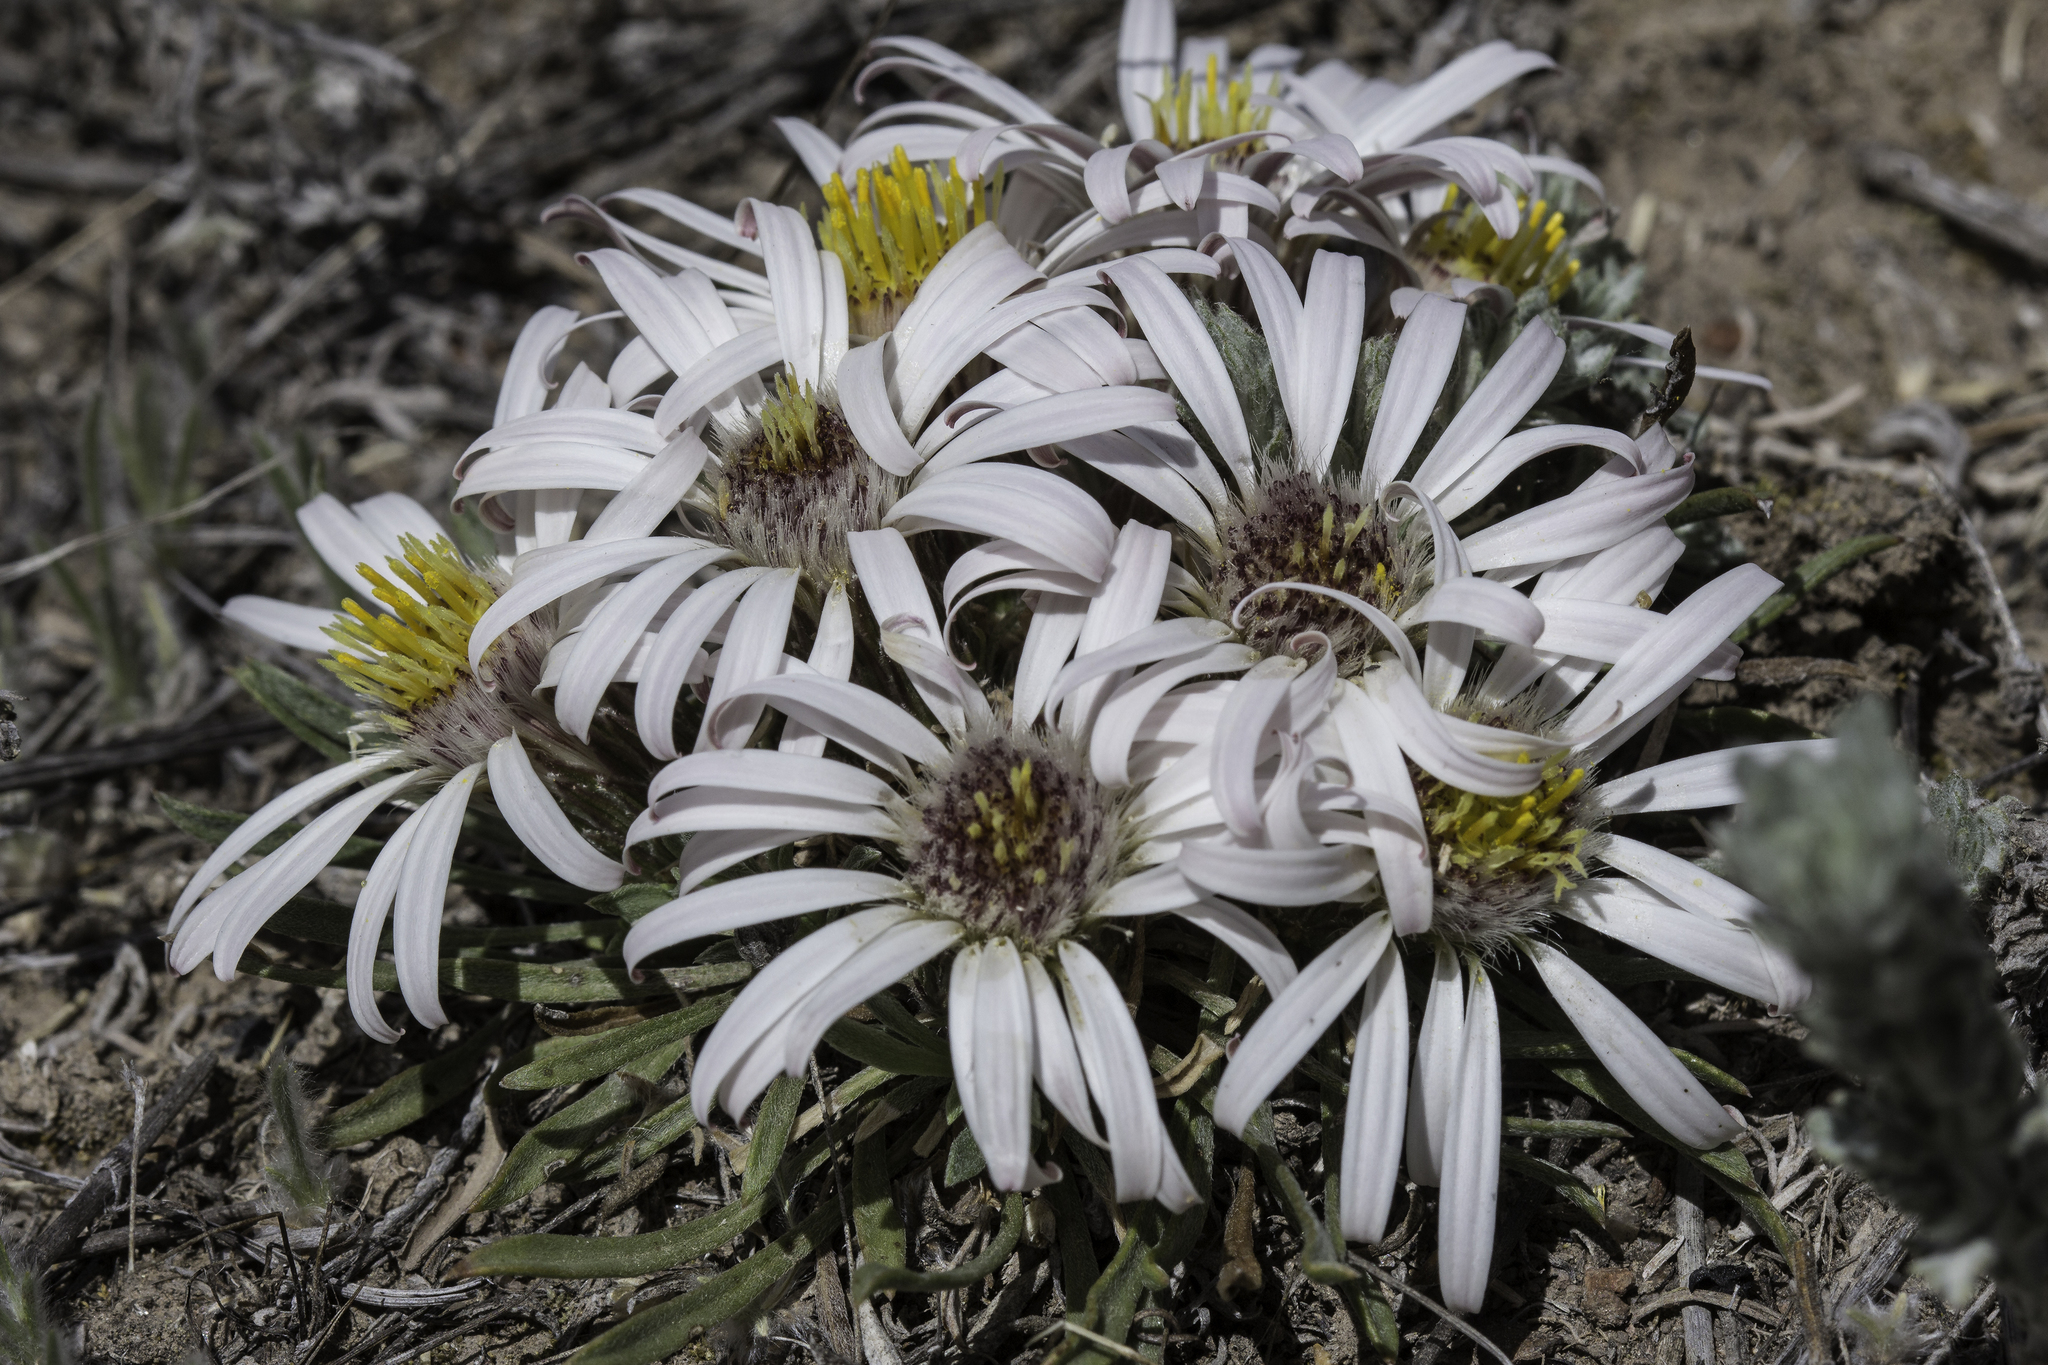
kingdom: Plantae
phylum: Tracheophyta
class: Magnoliopsida
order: Asterales
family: Asteraceae
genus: Townsendia
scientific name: Townsendia exscapa
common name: Dwarf townsendia
